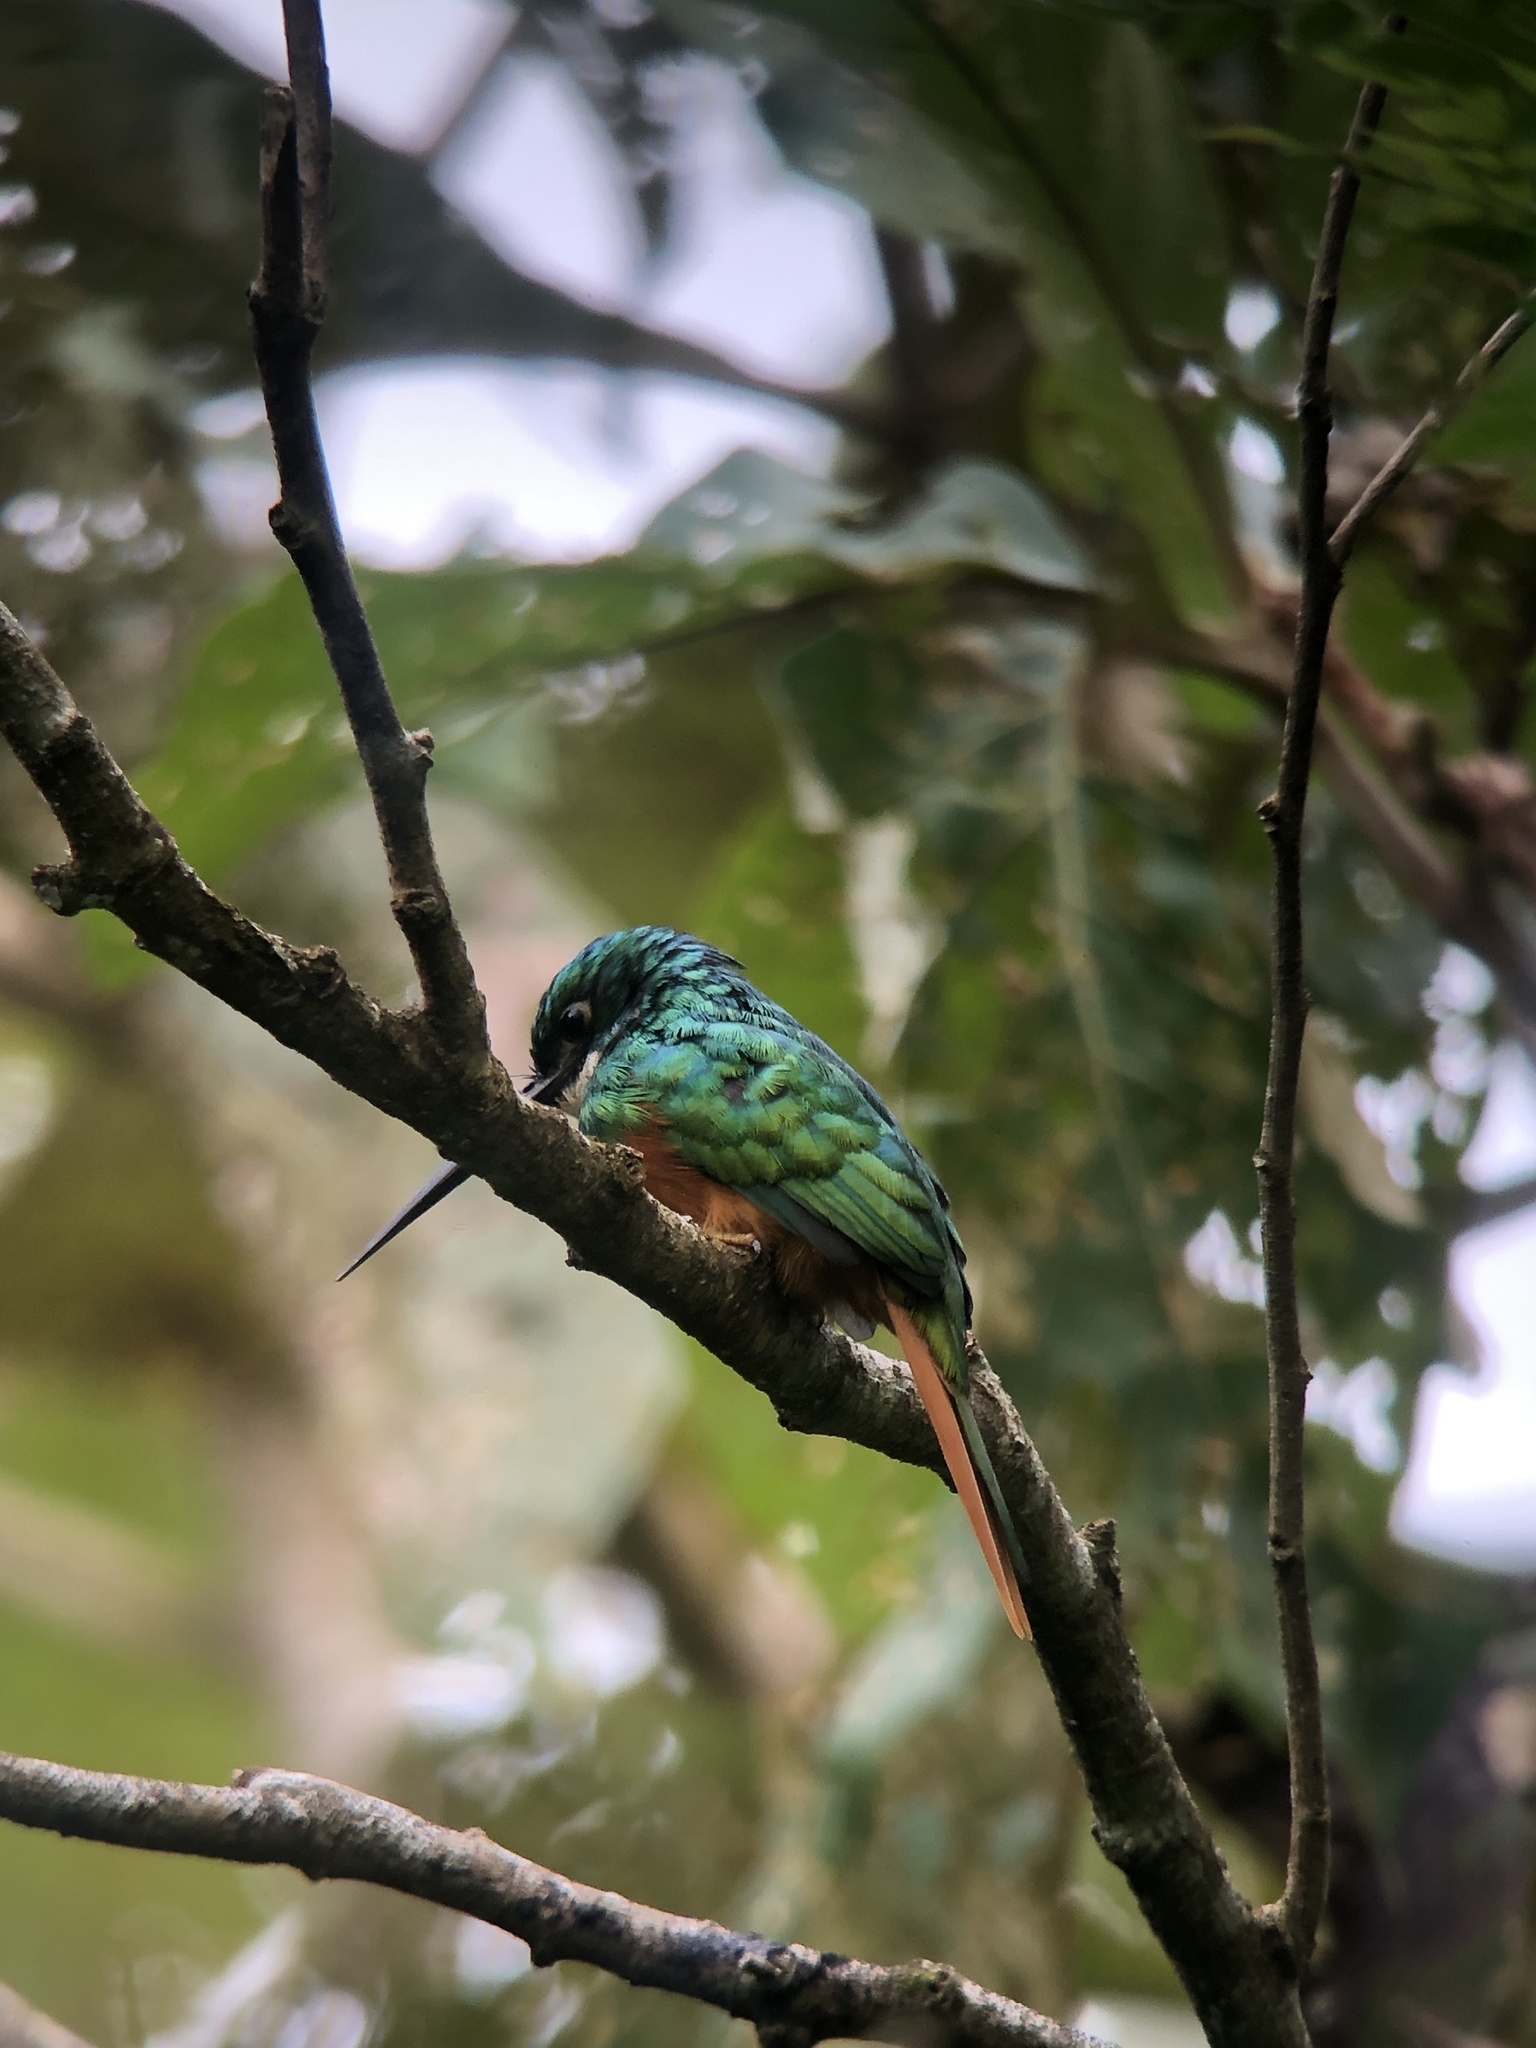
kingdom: Animalia
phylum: Chordata
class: Aves
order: Piciformes
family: Galbulidae
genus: Galbula
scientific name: Galbula ruficauda
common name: Rufous-tailed jacamar
